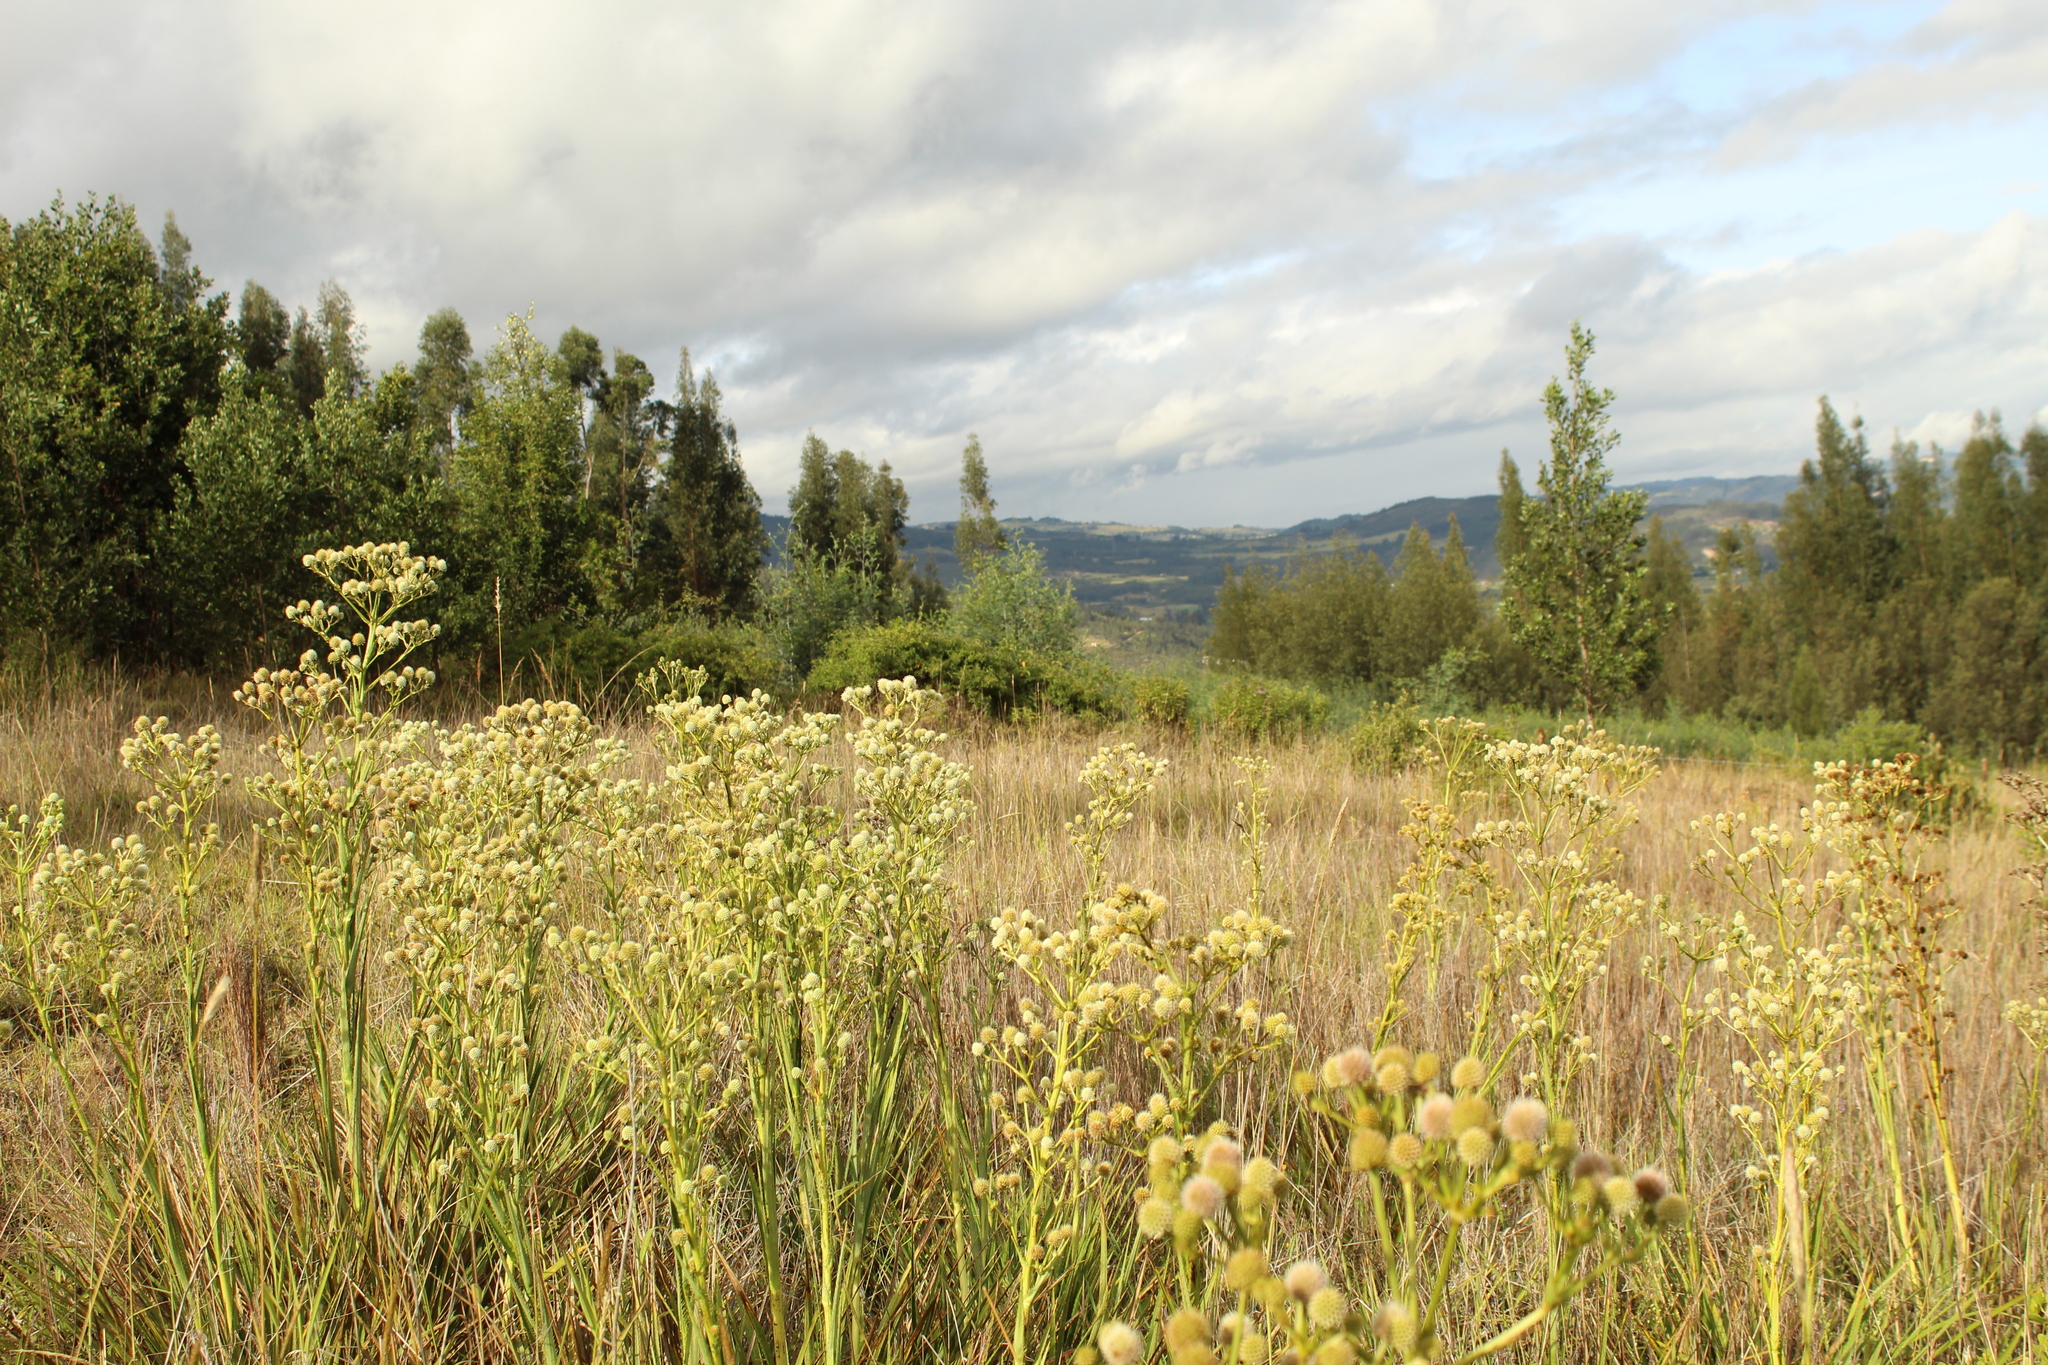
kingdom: Plantae
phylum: Tracheophyta
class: Magnoliopsida
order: Apiales
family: Apiaceae
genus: Eryngium
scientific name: Eryngium humboldtii
